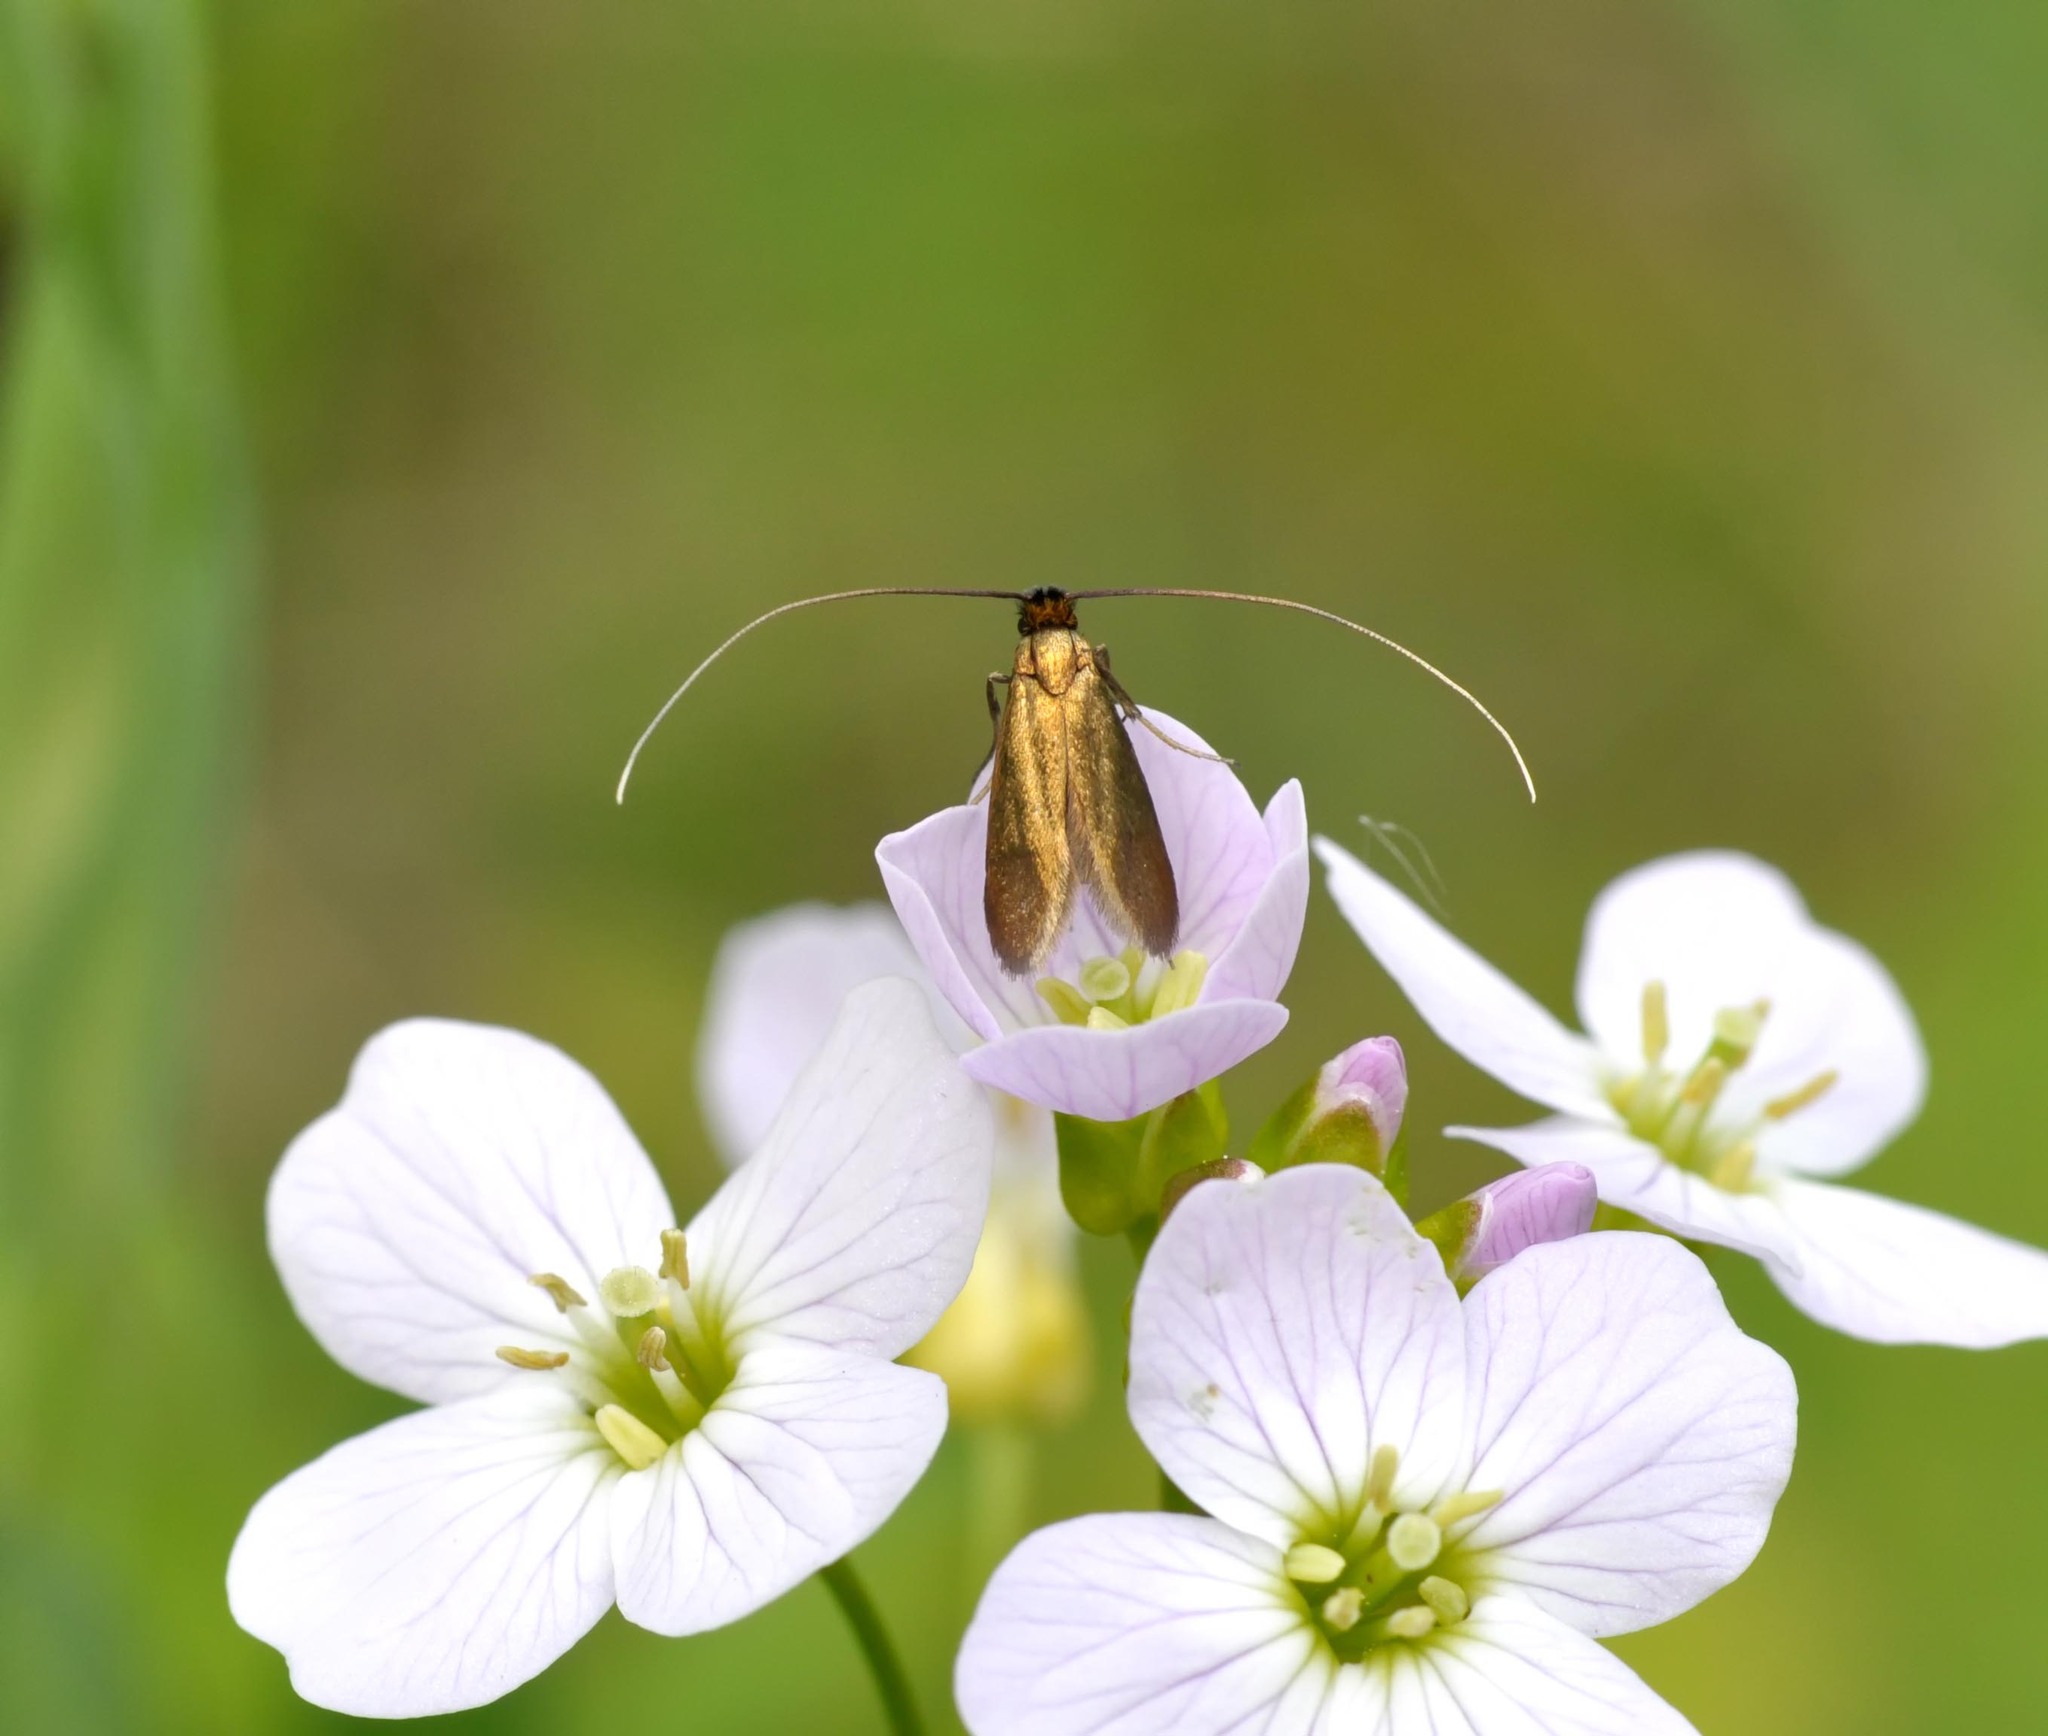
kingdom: Animalia
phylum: Arthropoda
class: Insecta
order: Lepidoptera
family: Adelidae
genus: Cauchas
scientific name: Cauchas rufimitrella
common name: Meadow long-horn
